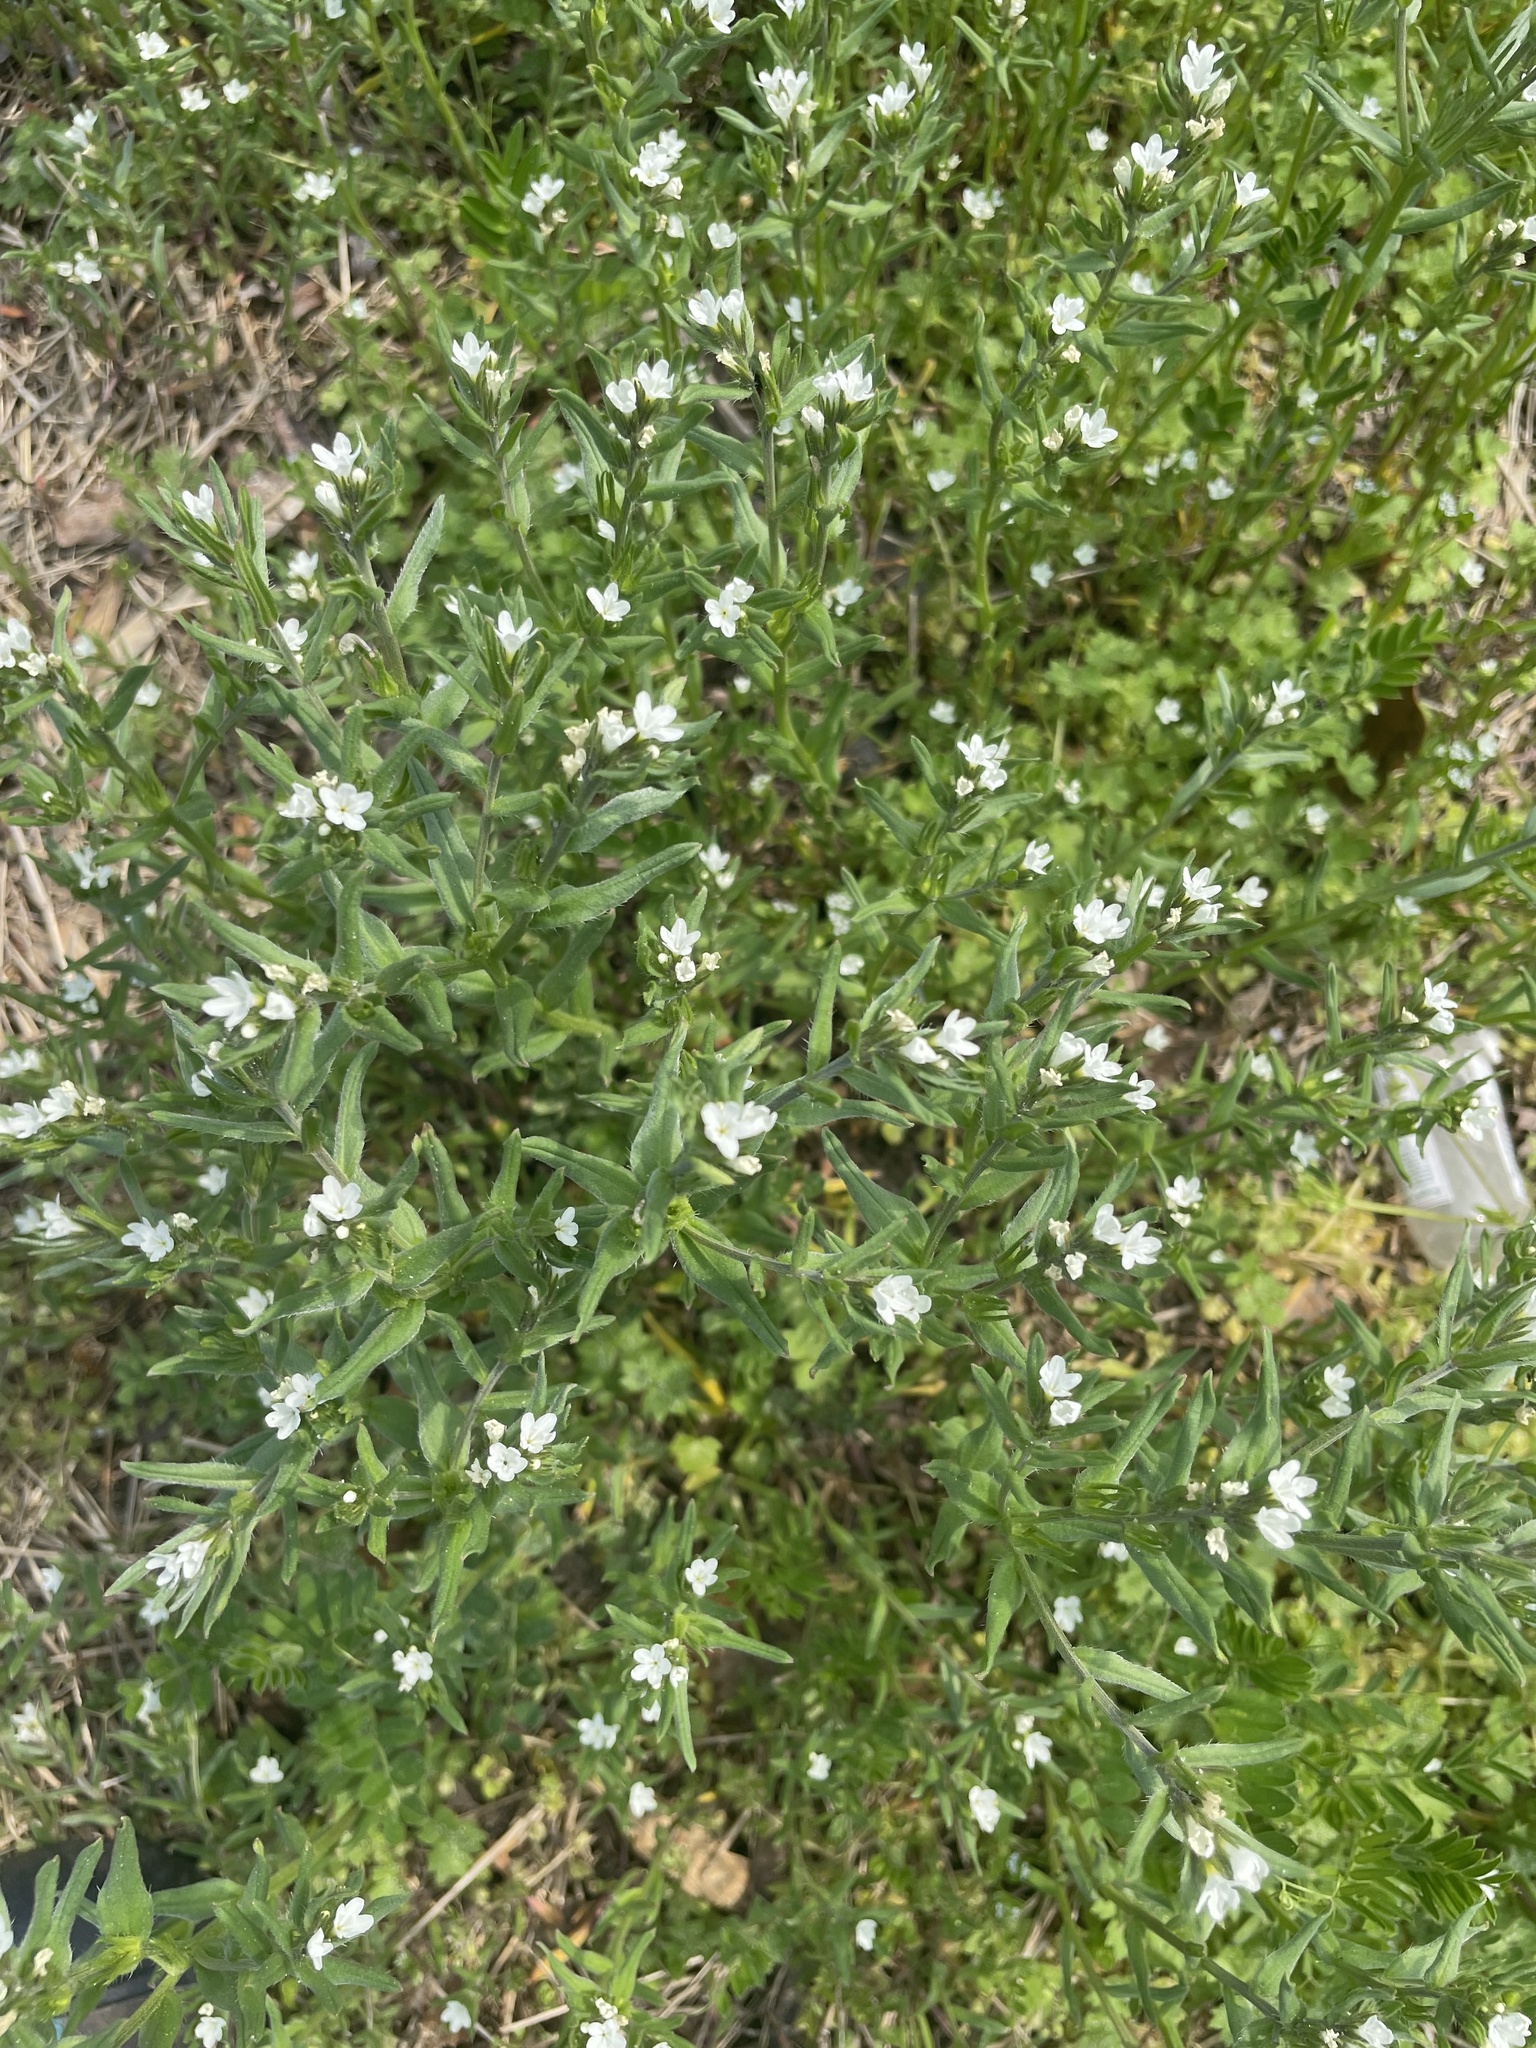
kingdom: Plantae
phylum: Tracheophyta
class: Magnoliopsida
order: Boraginales
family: Boraginaceae
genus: Buglossoides
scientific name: Buglossoides arvensis
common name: Corn gromwell
